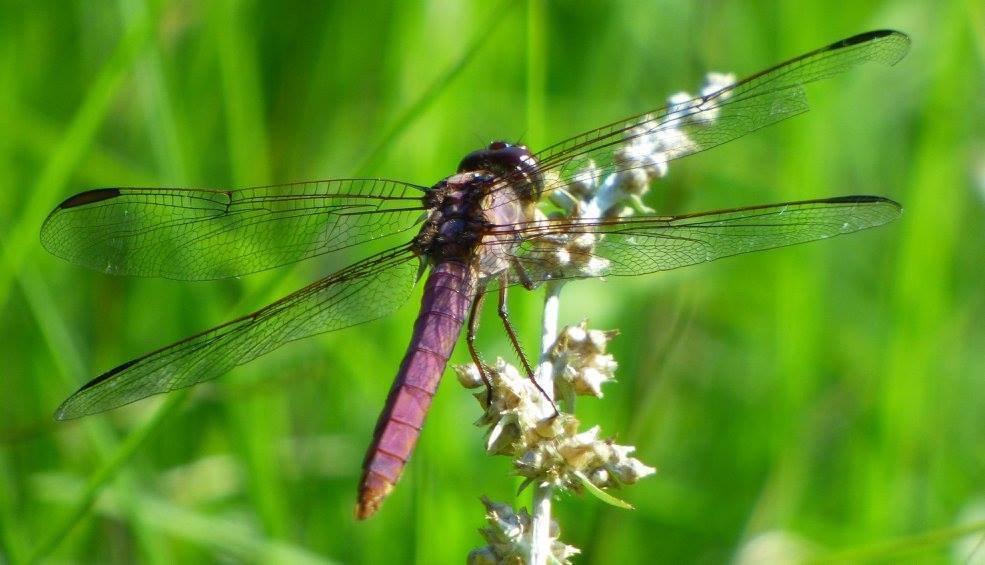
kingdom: Animalia
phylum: Arthropoda
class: Insecta
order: Odonata
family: Libellulidae
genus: Orthemis
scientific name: Orthemis ferruginea
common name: Roseate skimmer
